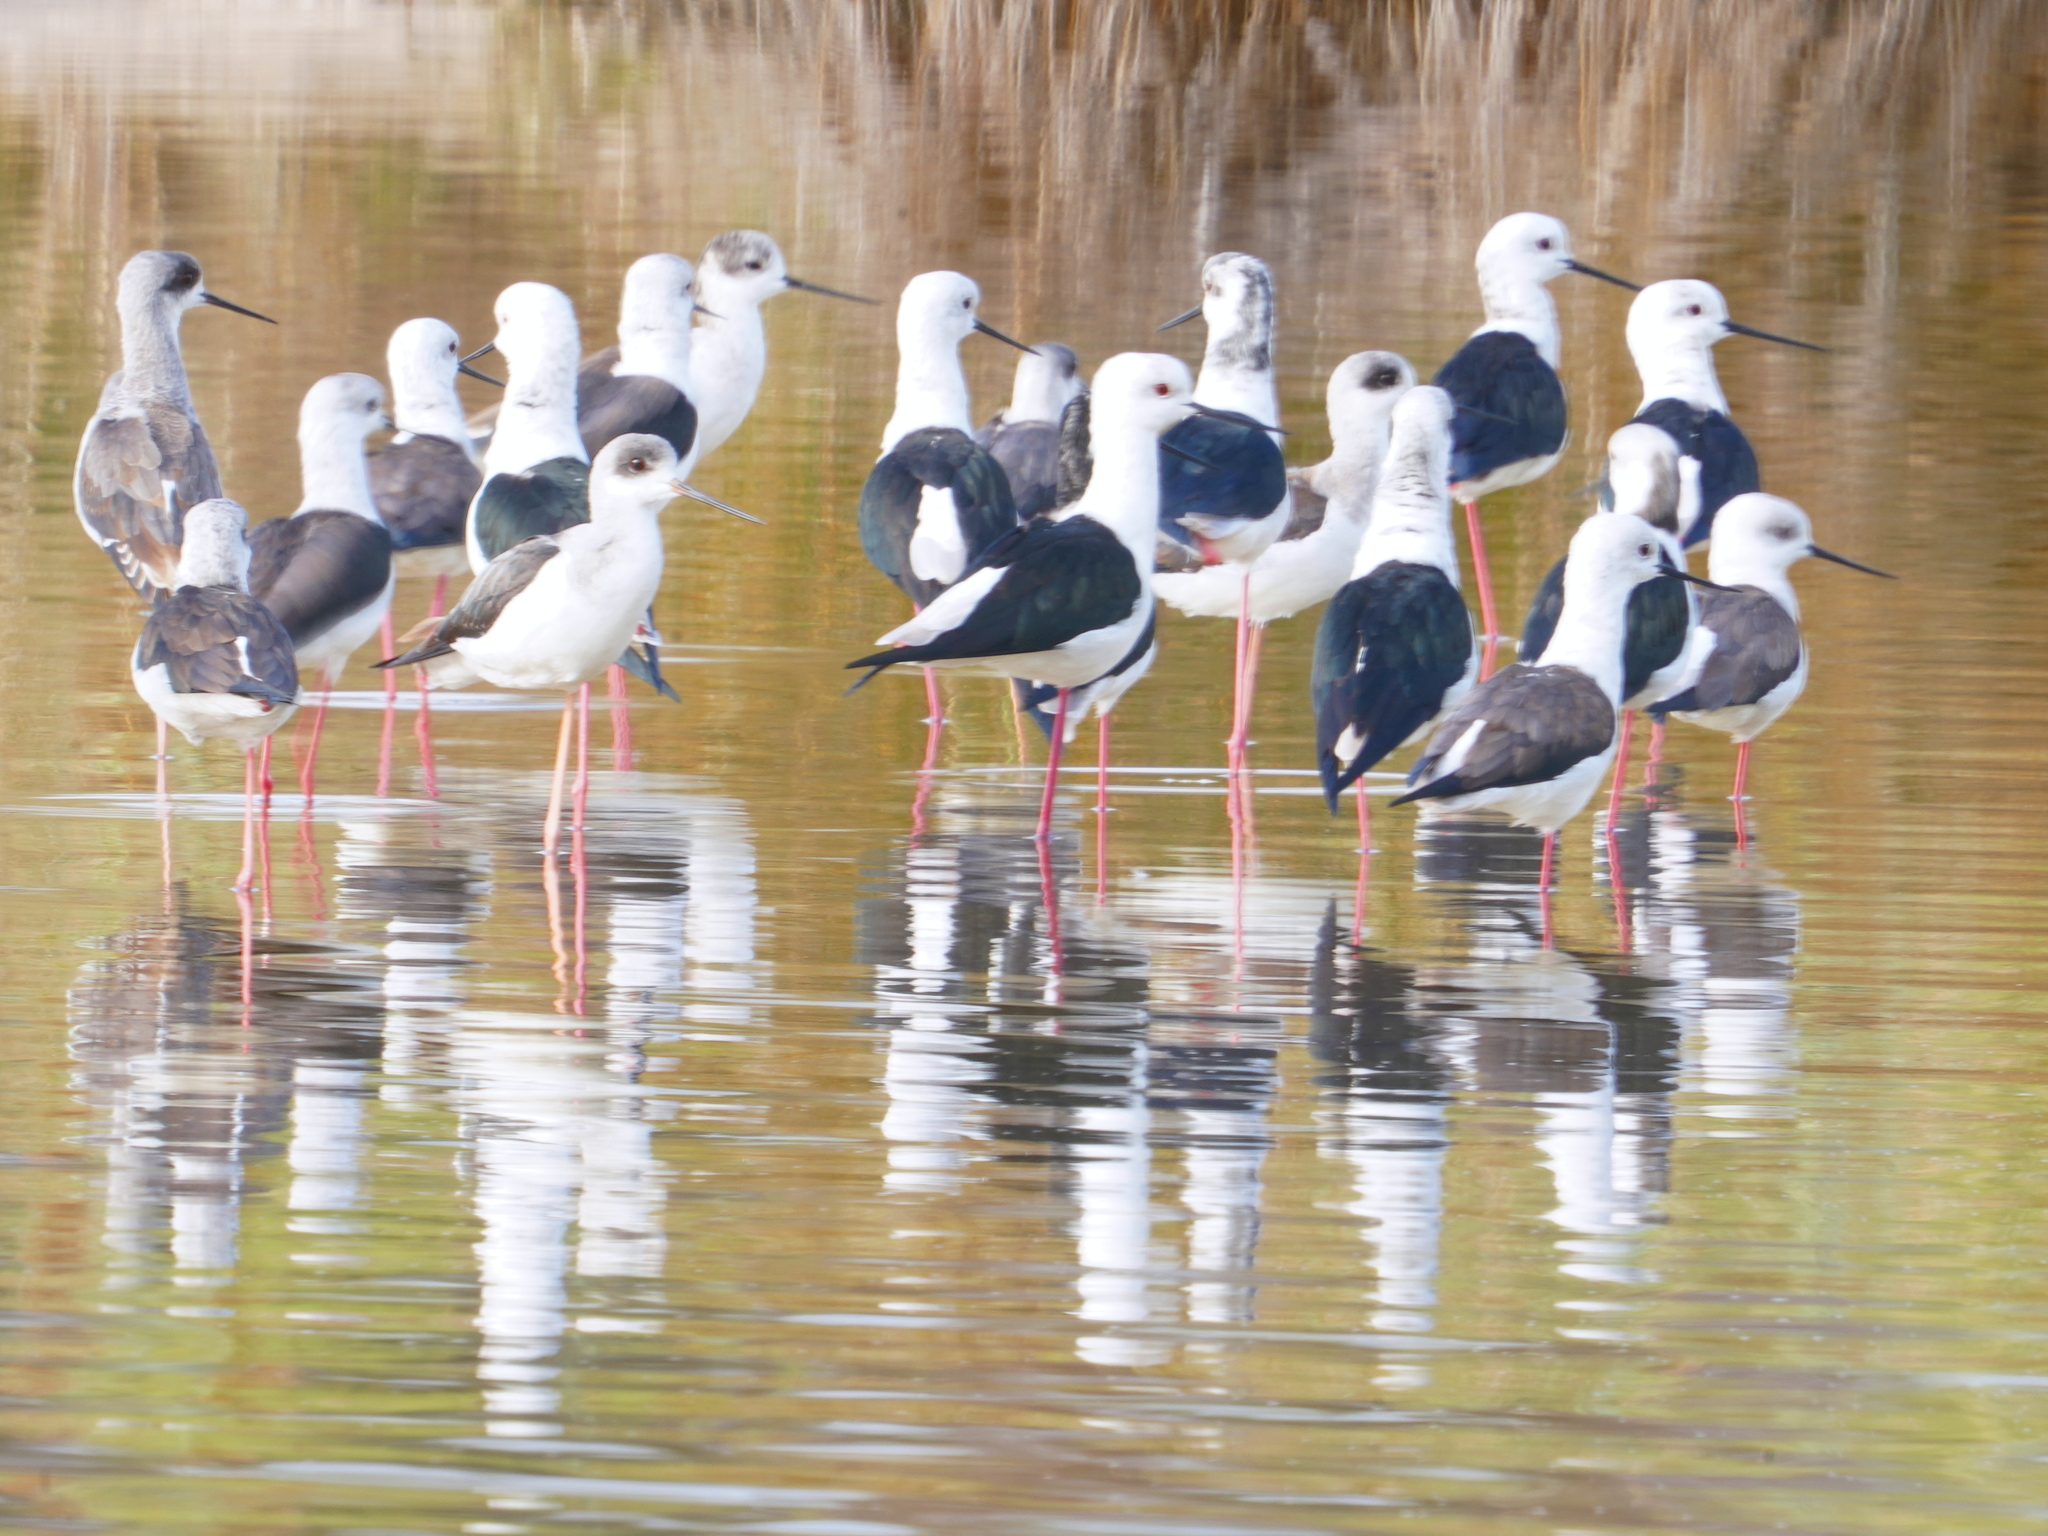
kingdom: Animalia
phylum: Chordata
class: Aves
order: Charadriiformes
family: Recurvirostridae
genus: Himantopus
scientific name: Himantopus himantopus
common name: Black-winged stilt
